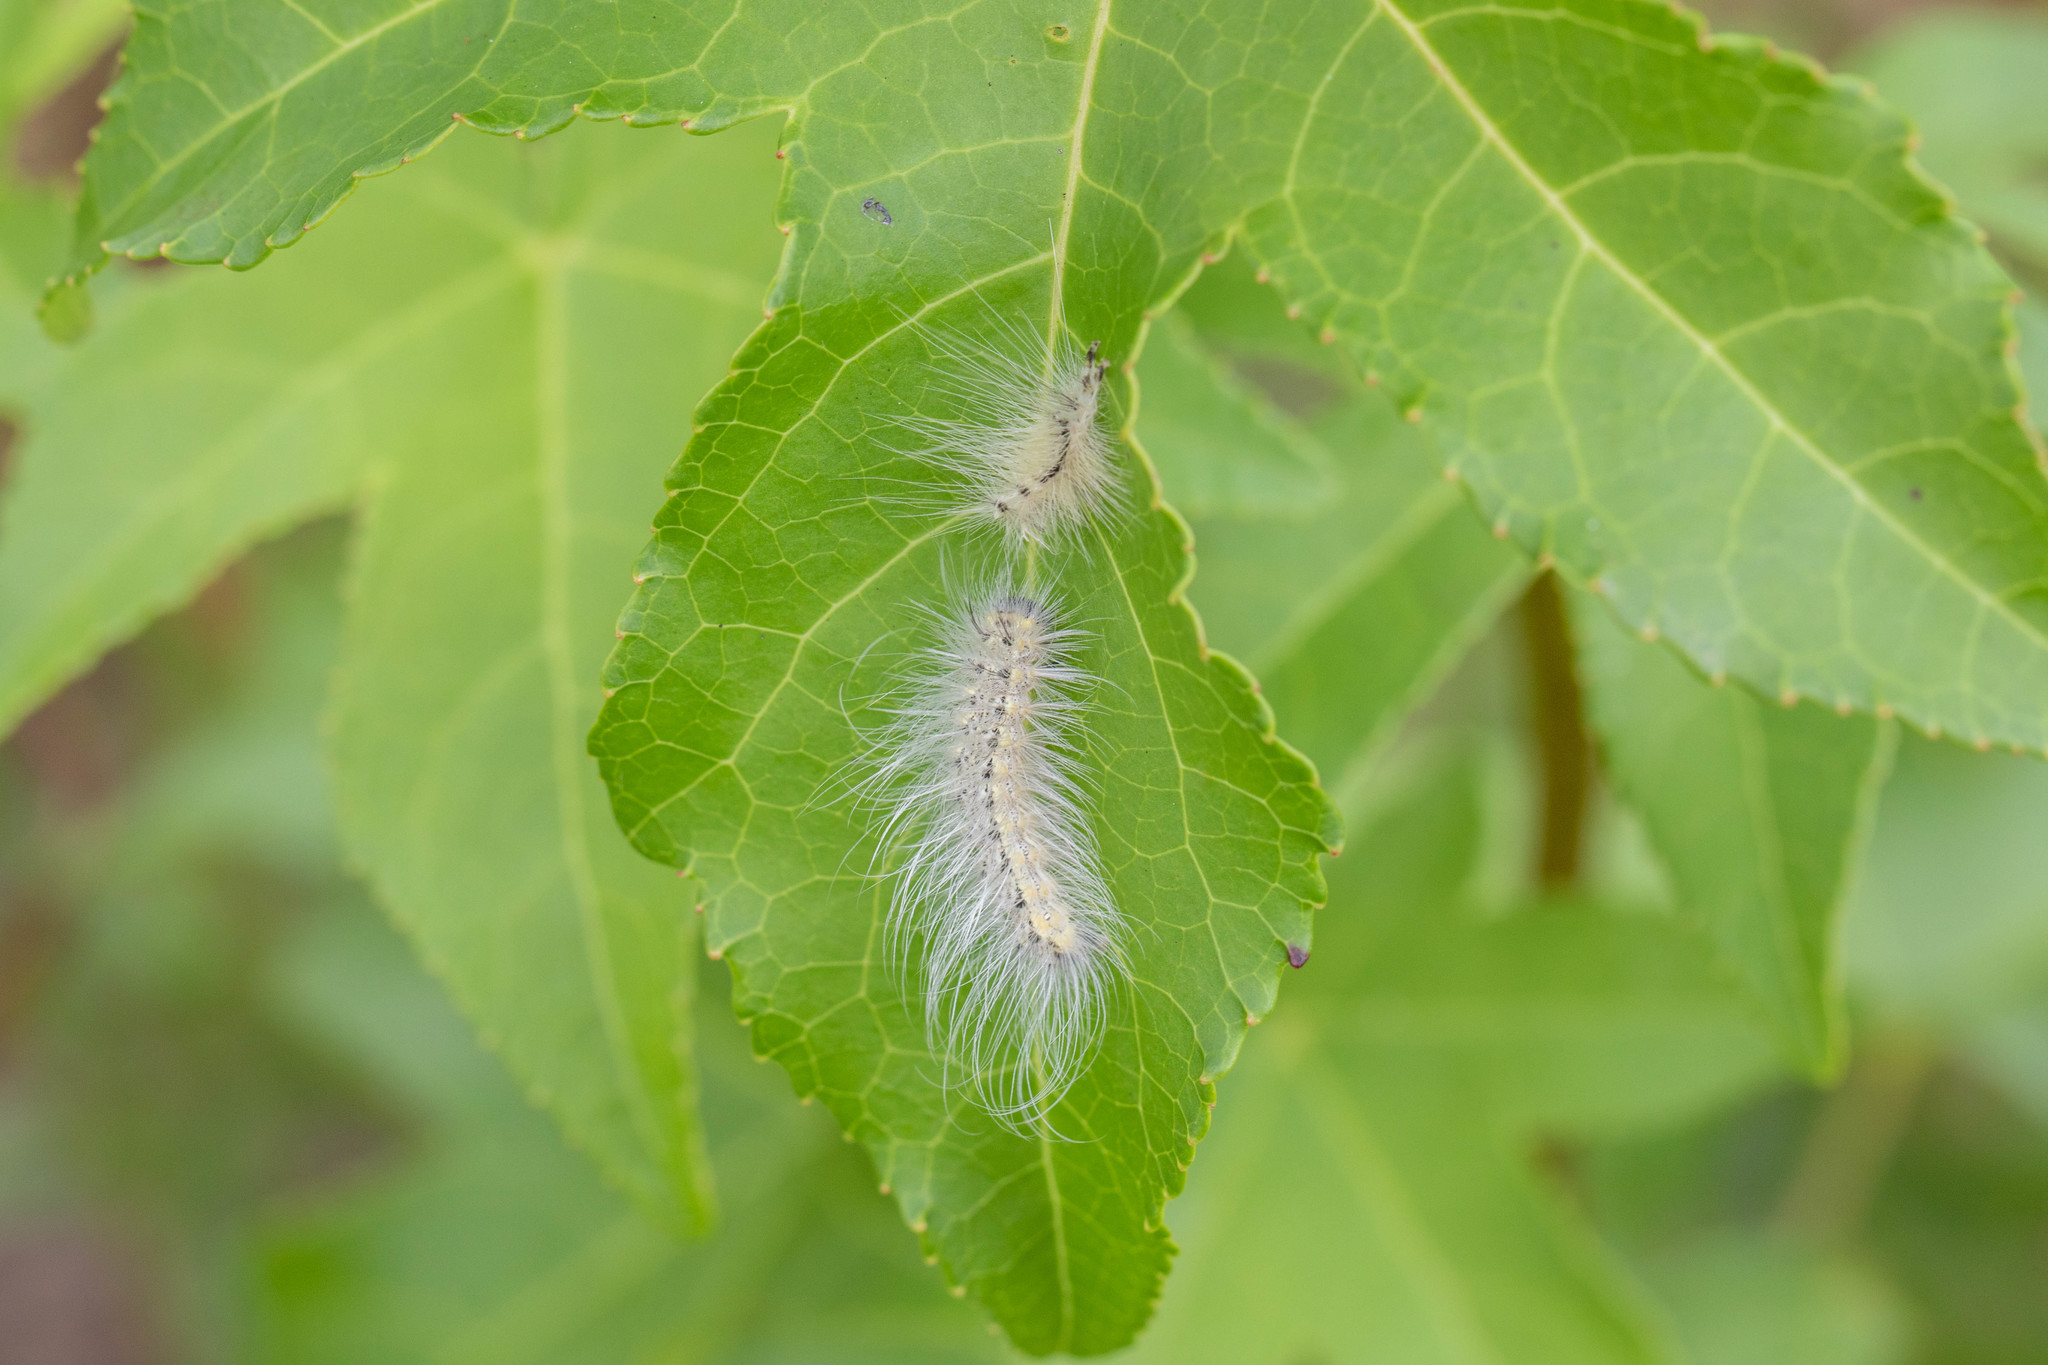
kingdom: Animalia
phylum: Arthropoda
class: Insecta
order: Lepidoptera
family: Erebidae
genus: Hyphantria
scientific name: Hyphantria cunea
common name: American white moth
